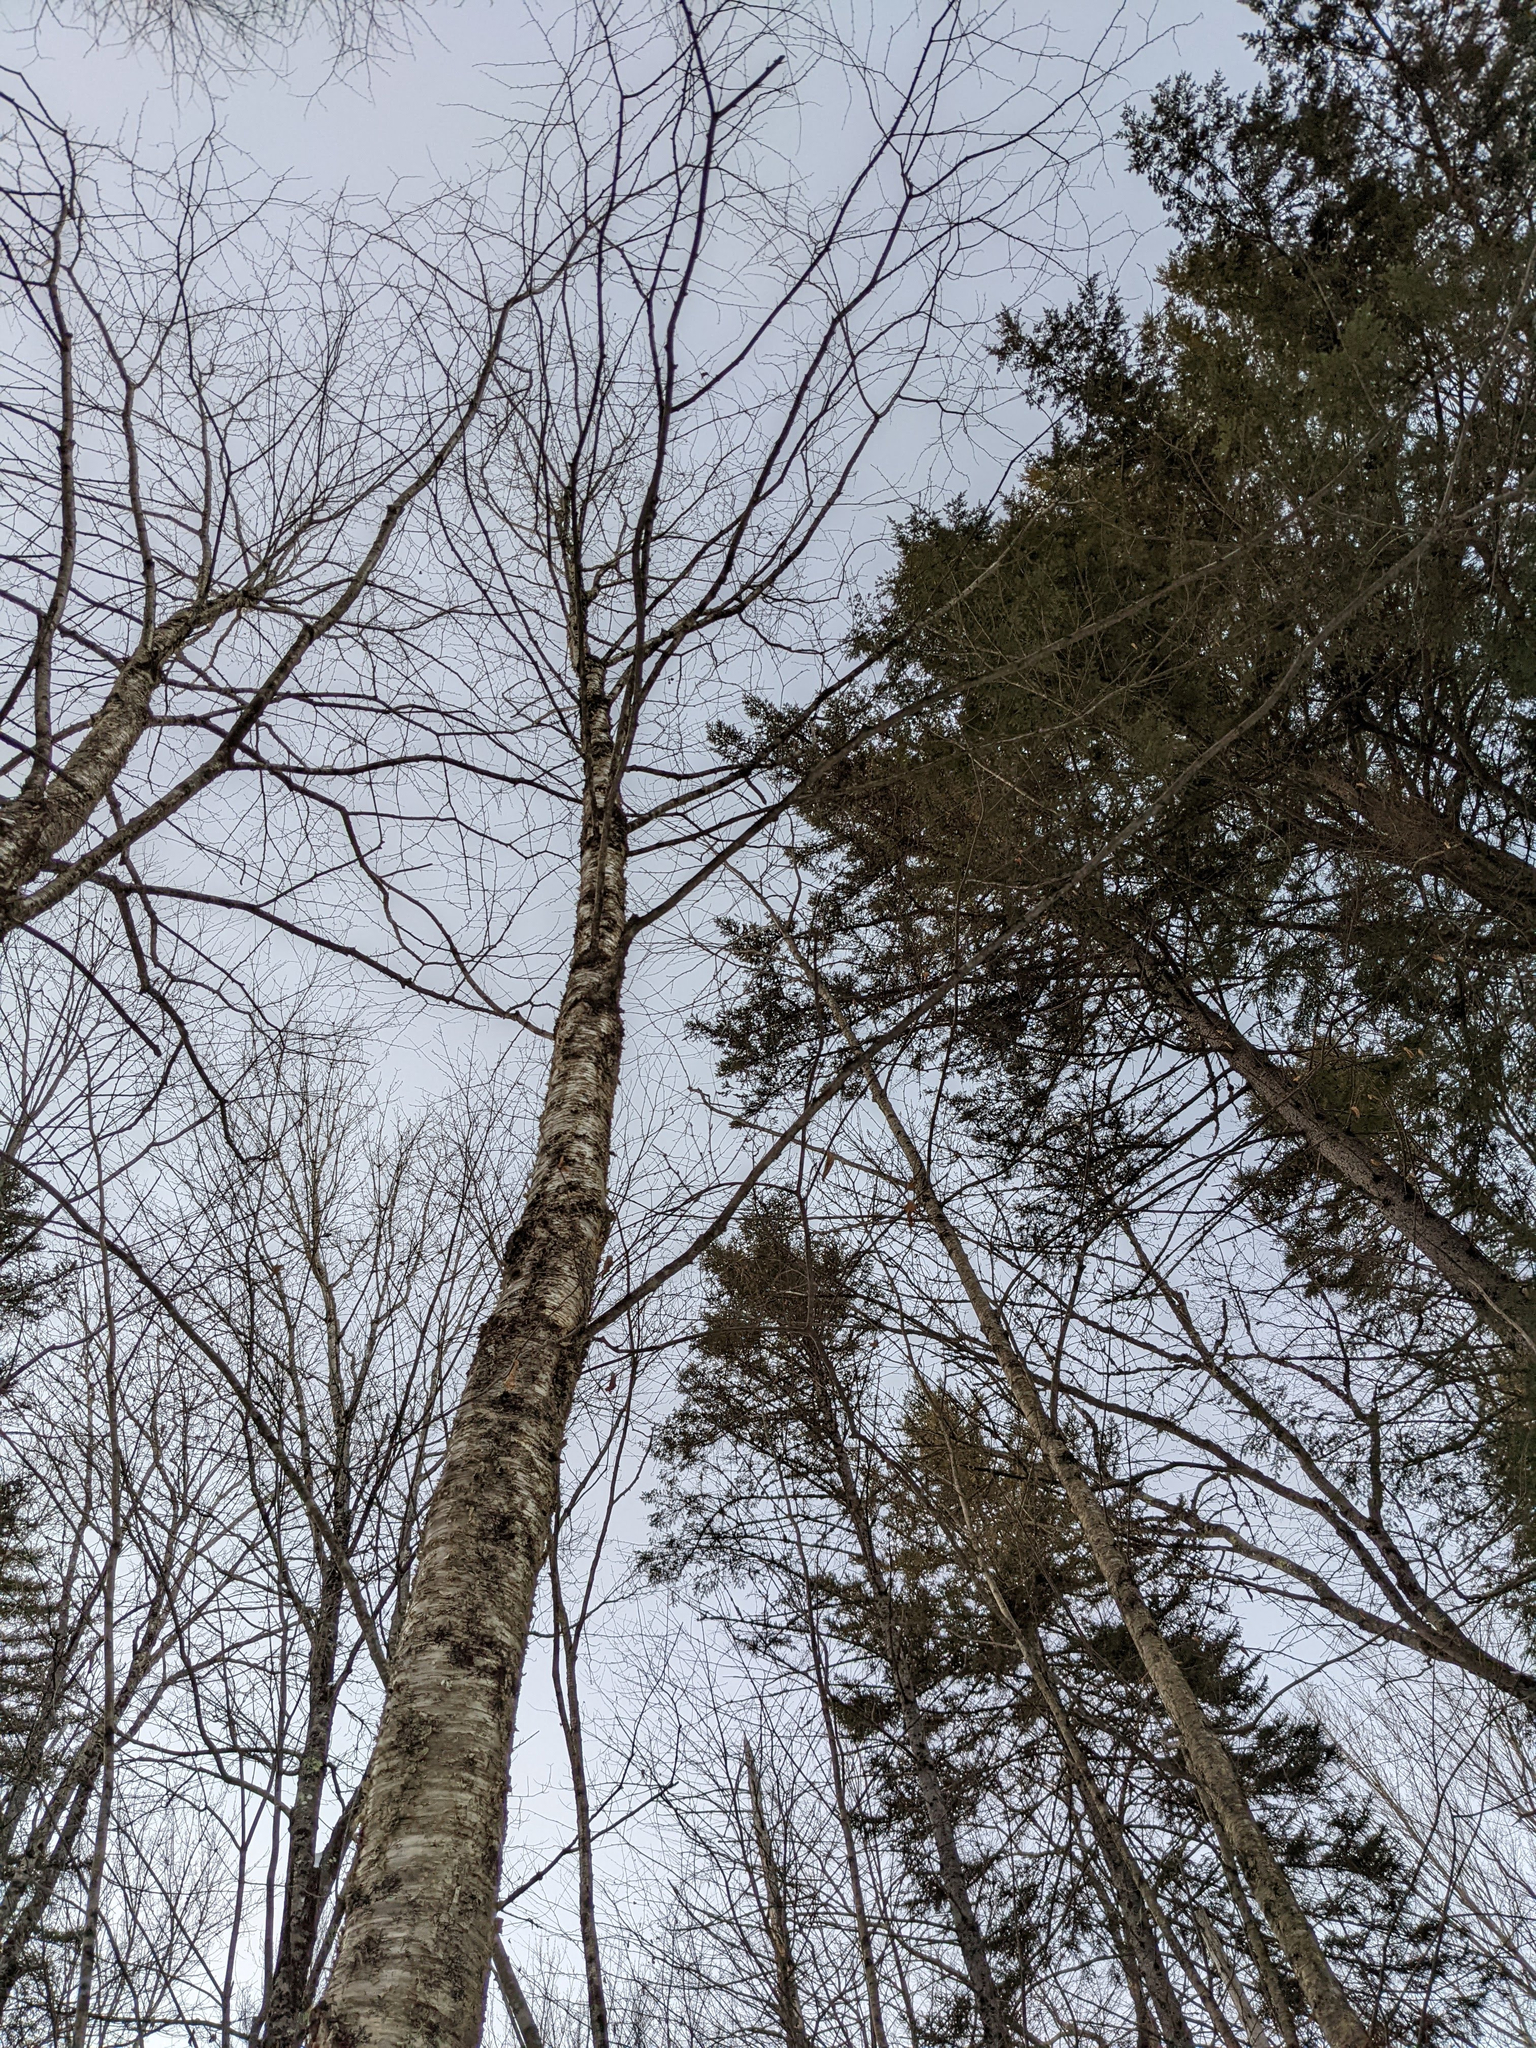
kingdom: Plantae
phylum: Tracheophyta
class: Magnoliopsida
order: Fagales
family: Betulaceae
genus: Betula
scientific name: Betula alleghaniensis
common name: Yellow birch
